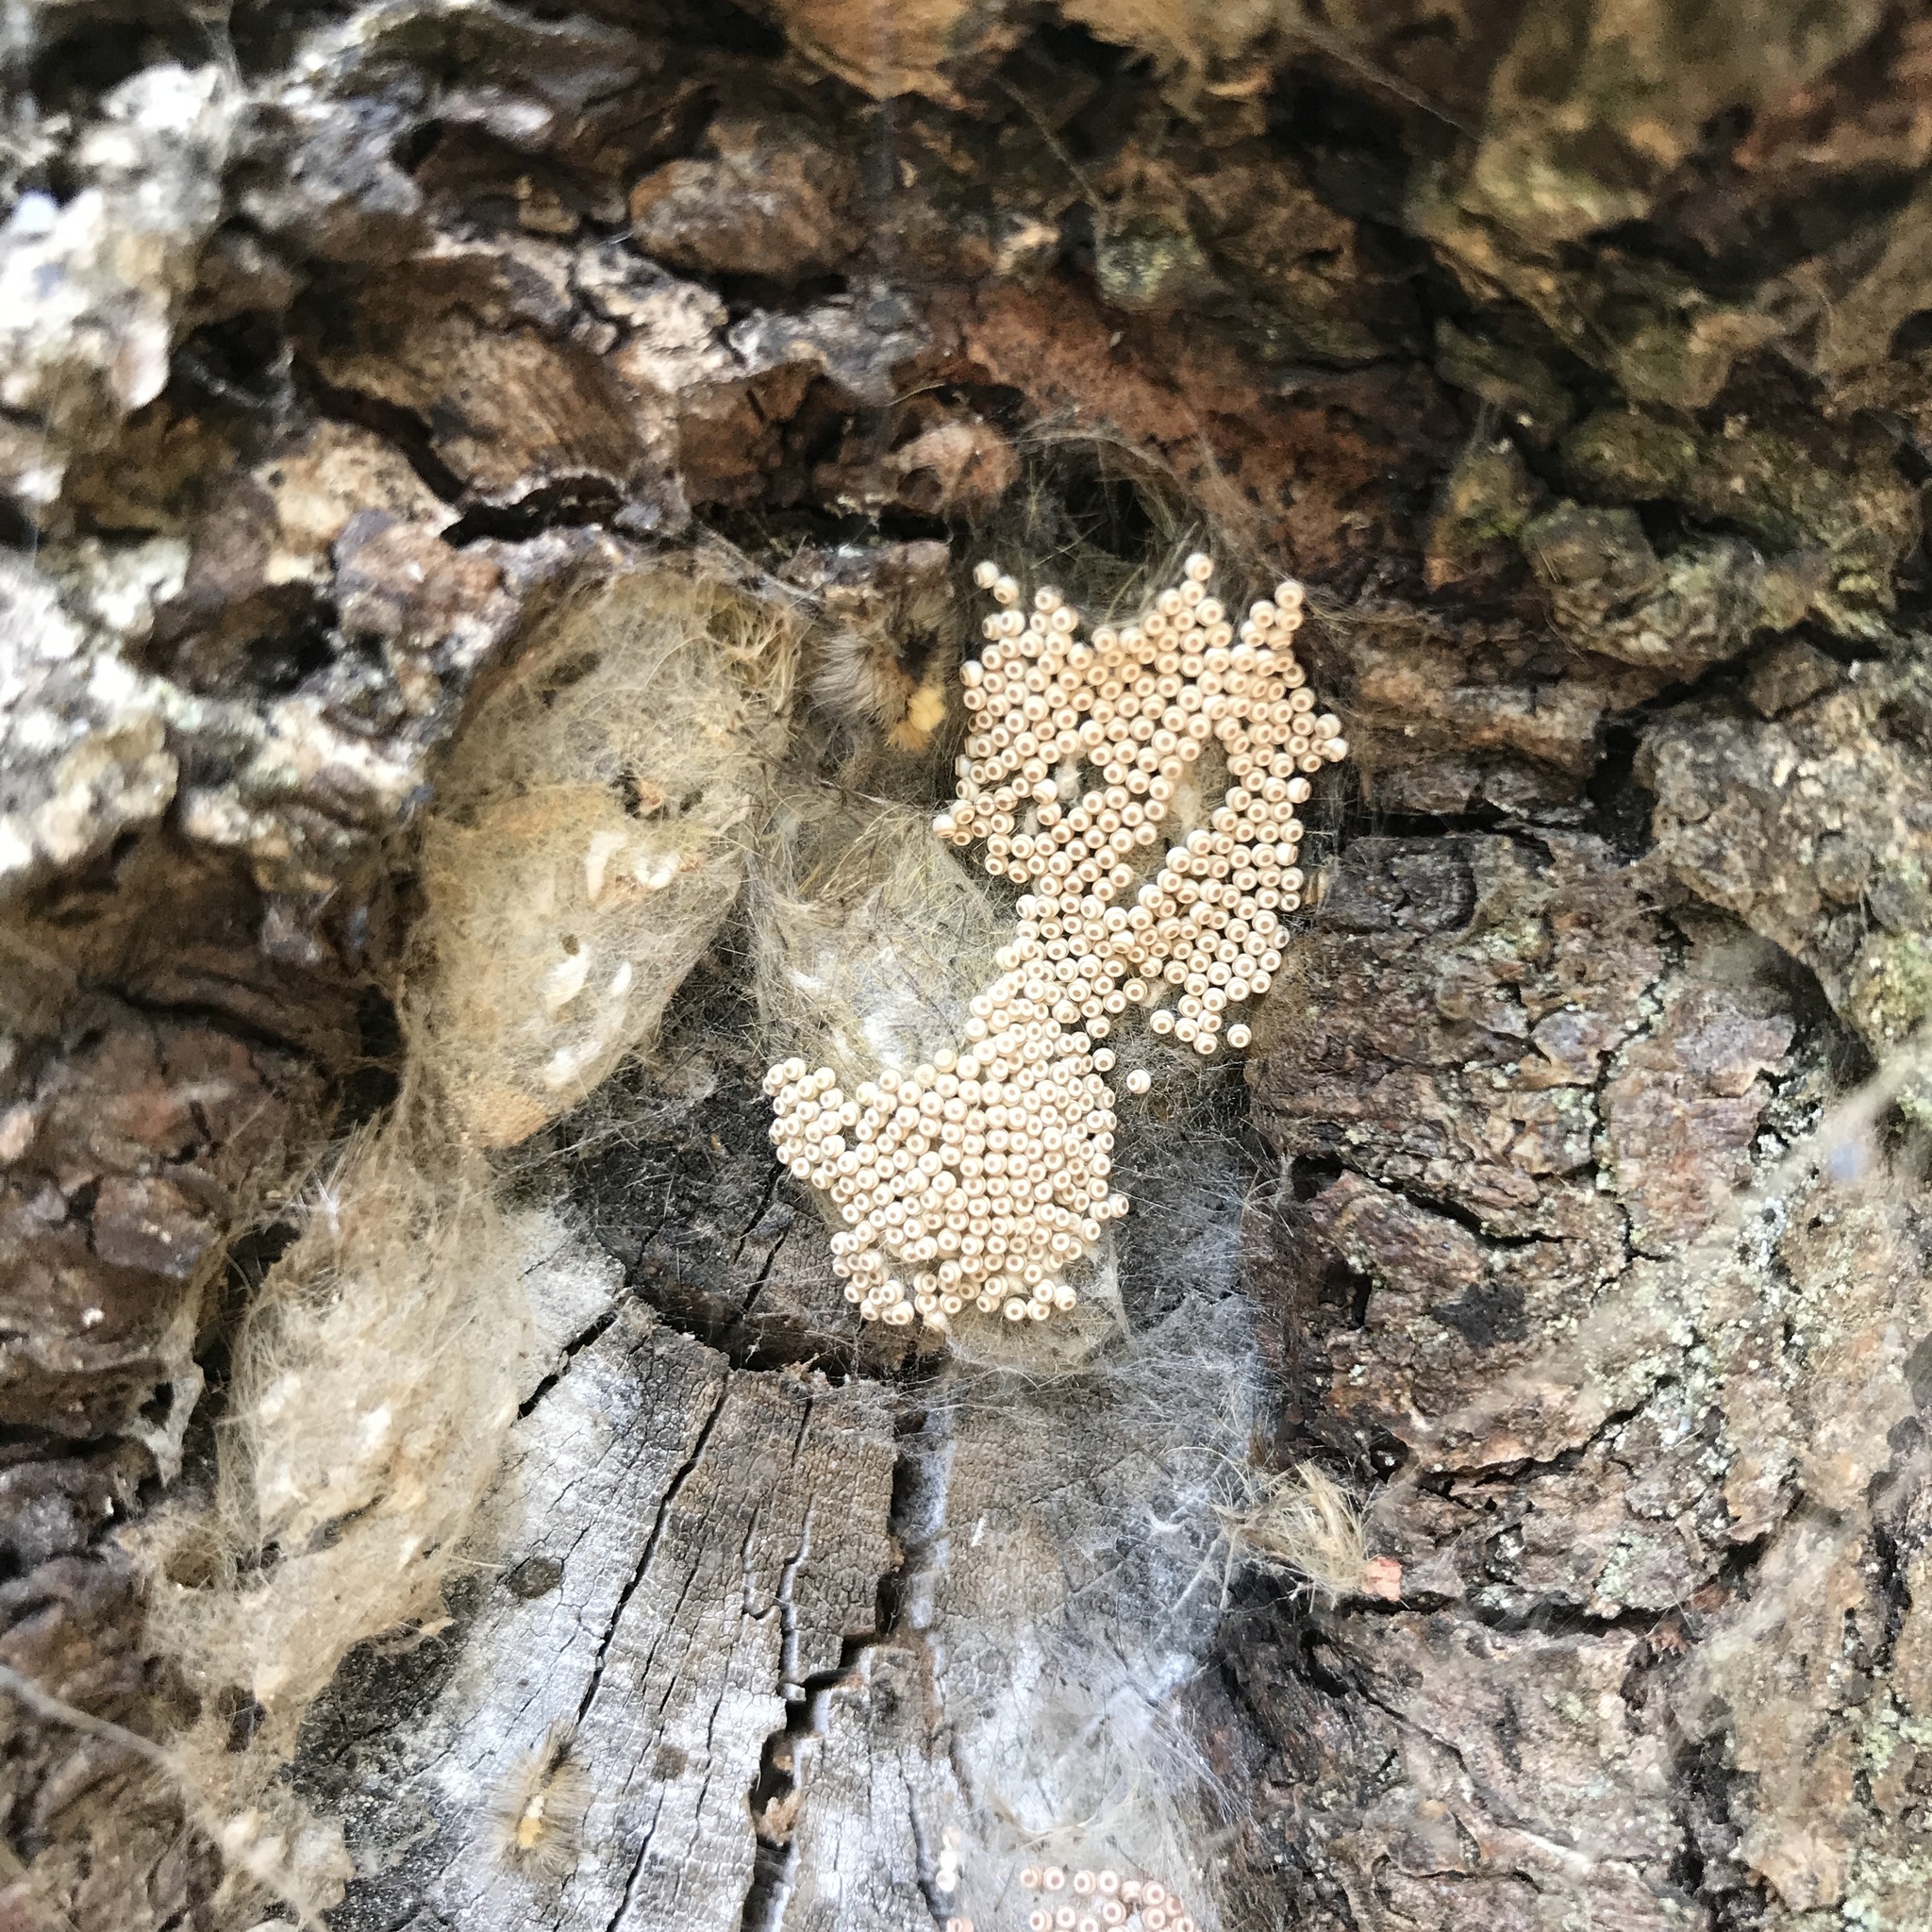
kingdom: Animalia
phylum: Arthropoda
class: Insecta
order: Lepidoptera
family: Erebidae
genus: Orgyia
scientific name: Orgyia antiqua
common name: Vapourer
